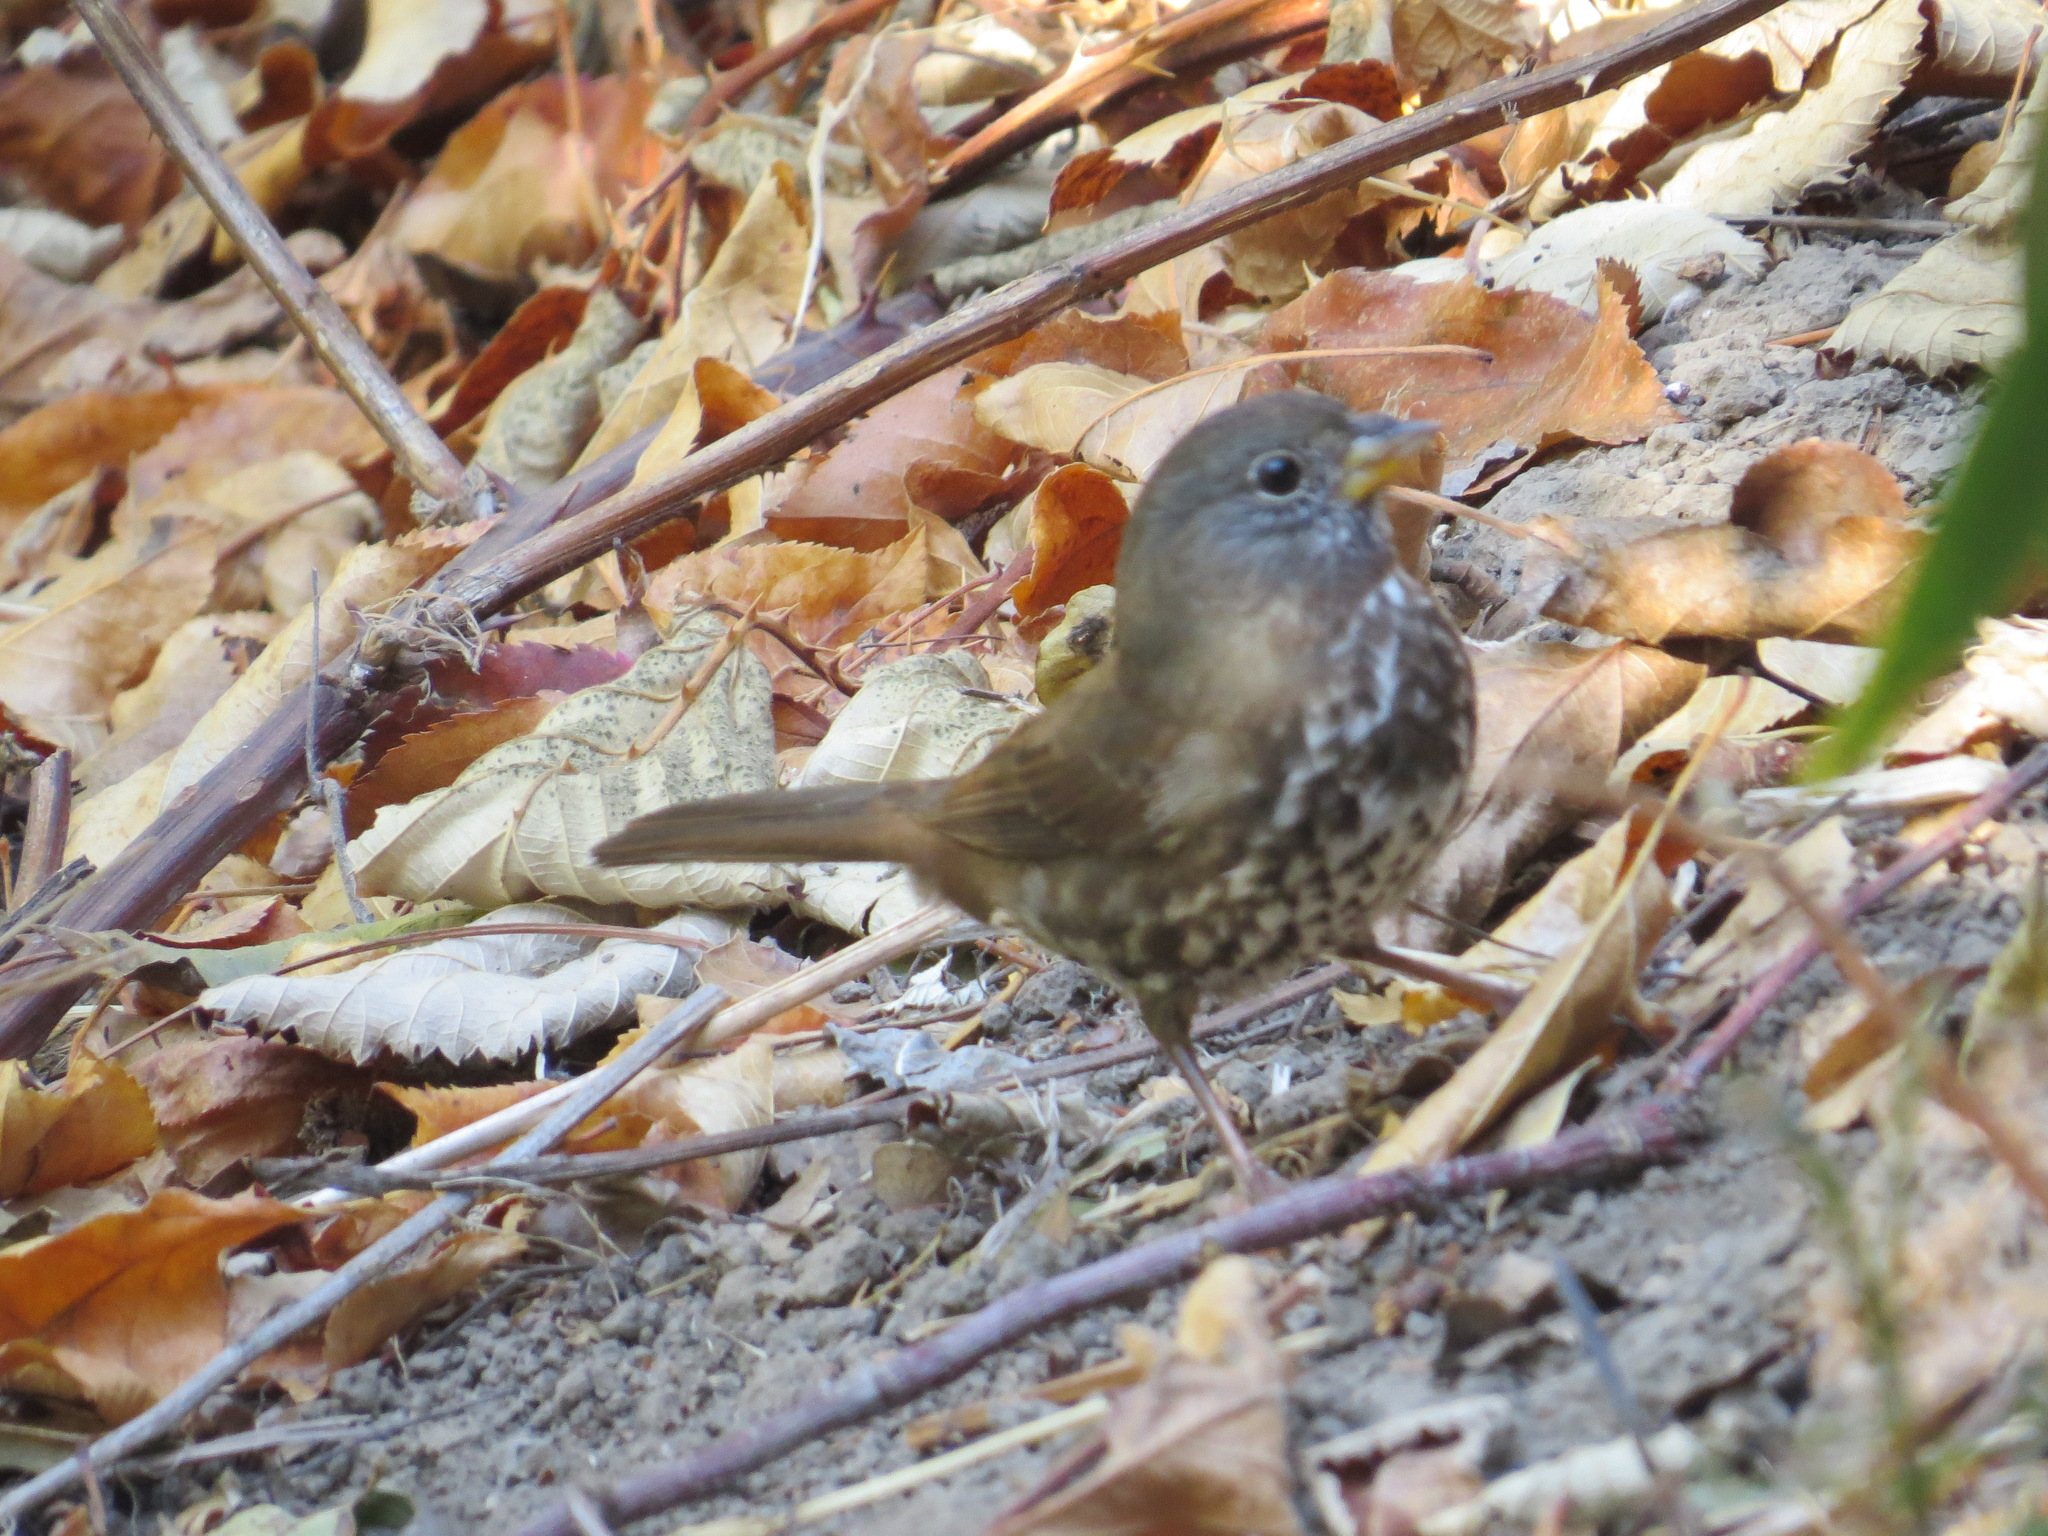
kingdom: Animalia
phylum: Chordata
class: Aves
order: Passeriformes
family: Passerellidae
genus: Passerella
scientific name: Passerella iliaca
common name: Fox sparrow
